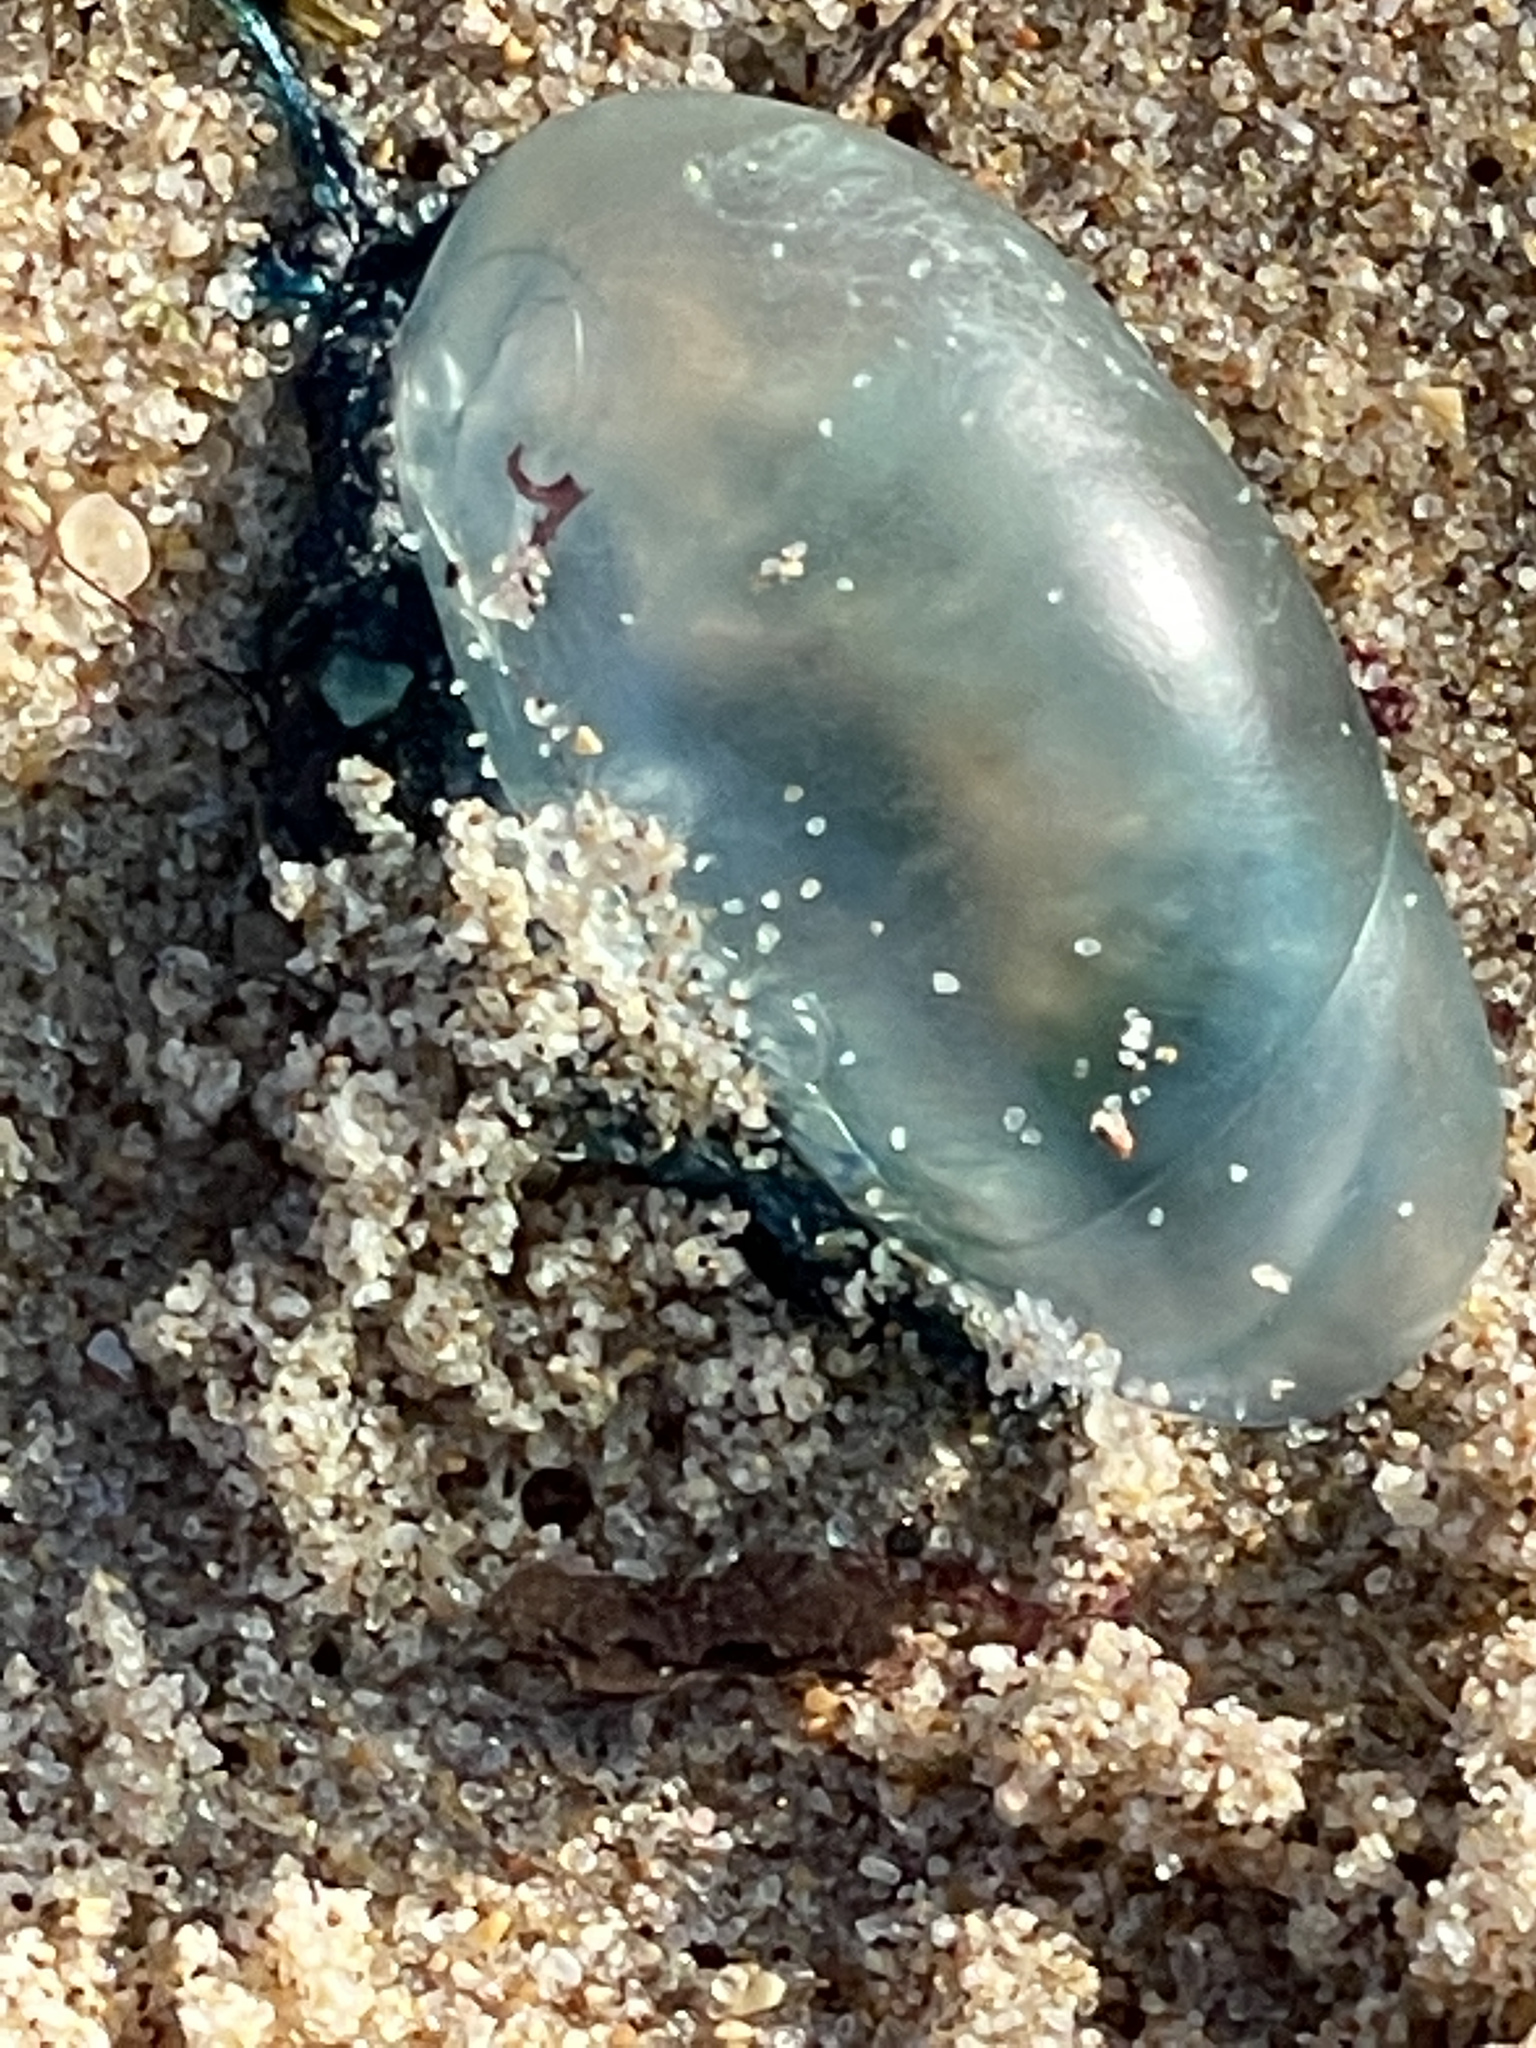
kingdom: Animalia
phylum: Cnidaria
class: Hydrozoa
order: Siphonophorae
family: Physaliidae
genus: Physalia
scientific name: Physalia physalis
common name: Portuguese man-of-war
